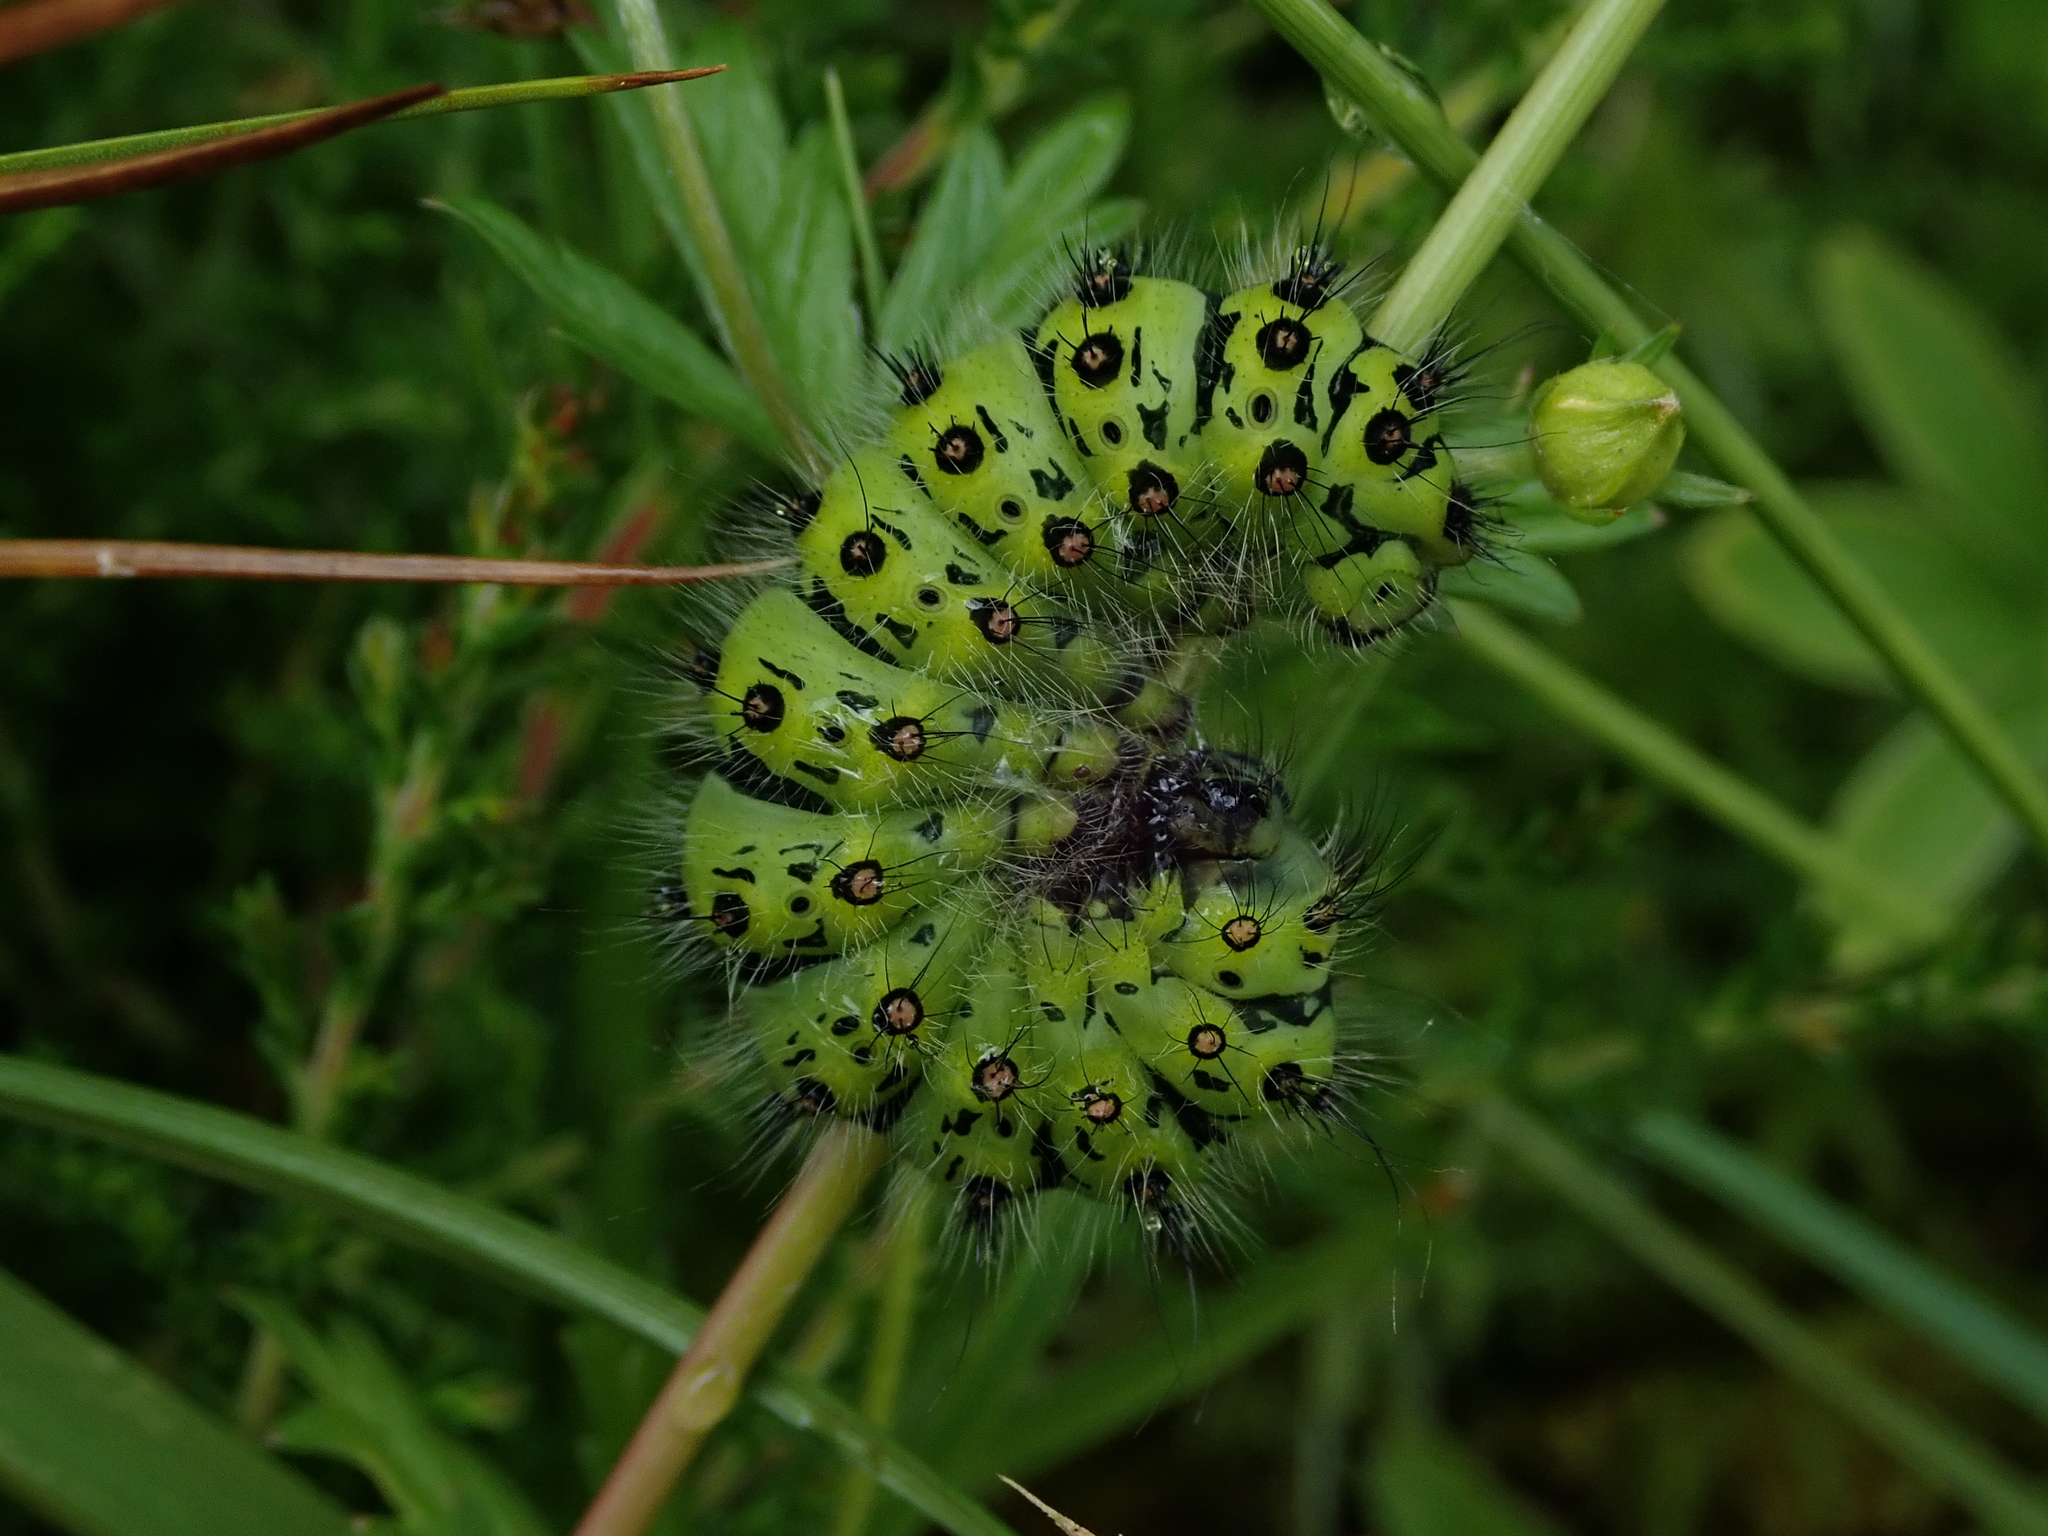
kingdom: Animalia
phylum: Arthropoda
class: Insecta
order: Lepidoptera
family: Saturniidae
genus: Saturnia
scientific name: Saturnia pavonia
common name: Emperor moth
